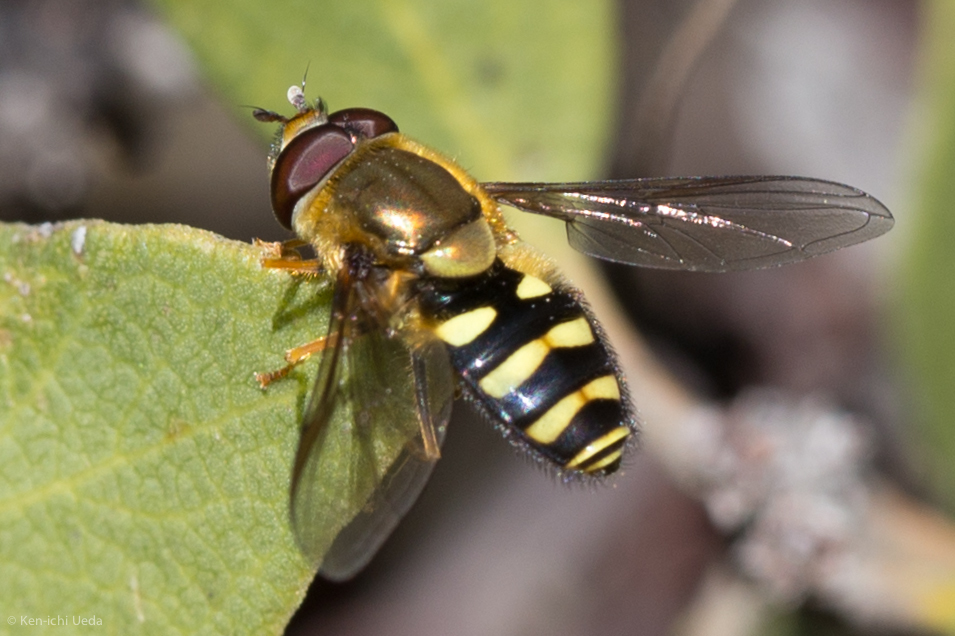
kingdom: Animalia
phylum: Arthropoda
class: Insecta
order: Diptera
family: Syrphidae
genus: Syrphus
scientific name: Syrphus opinator
